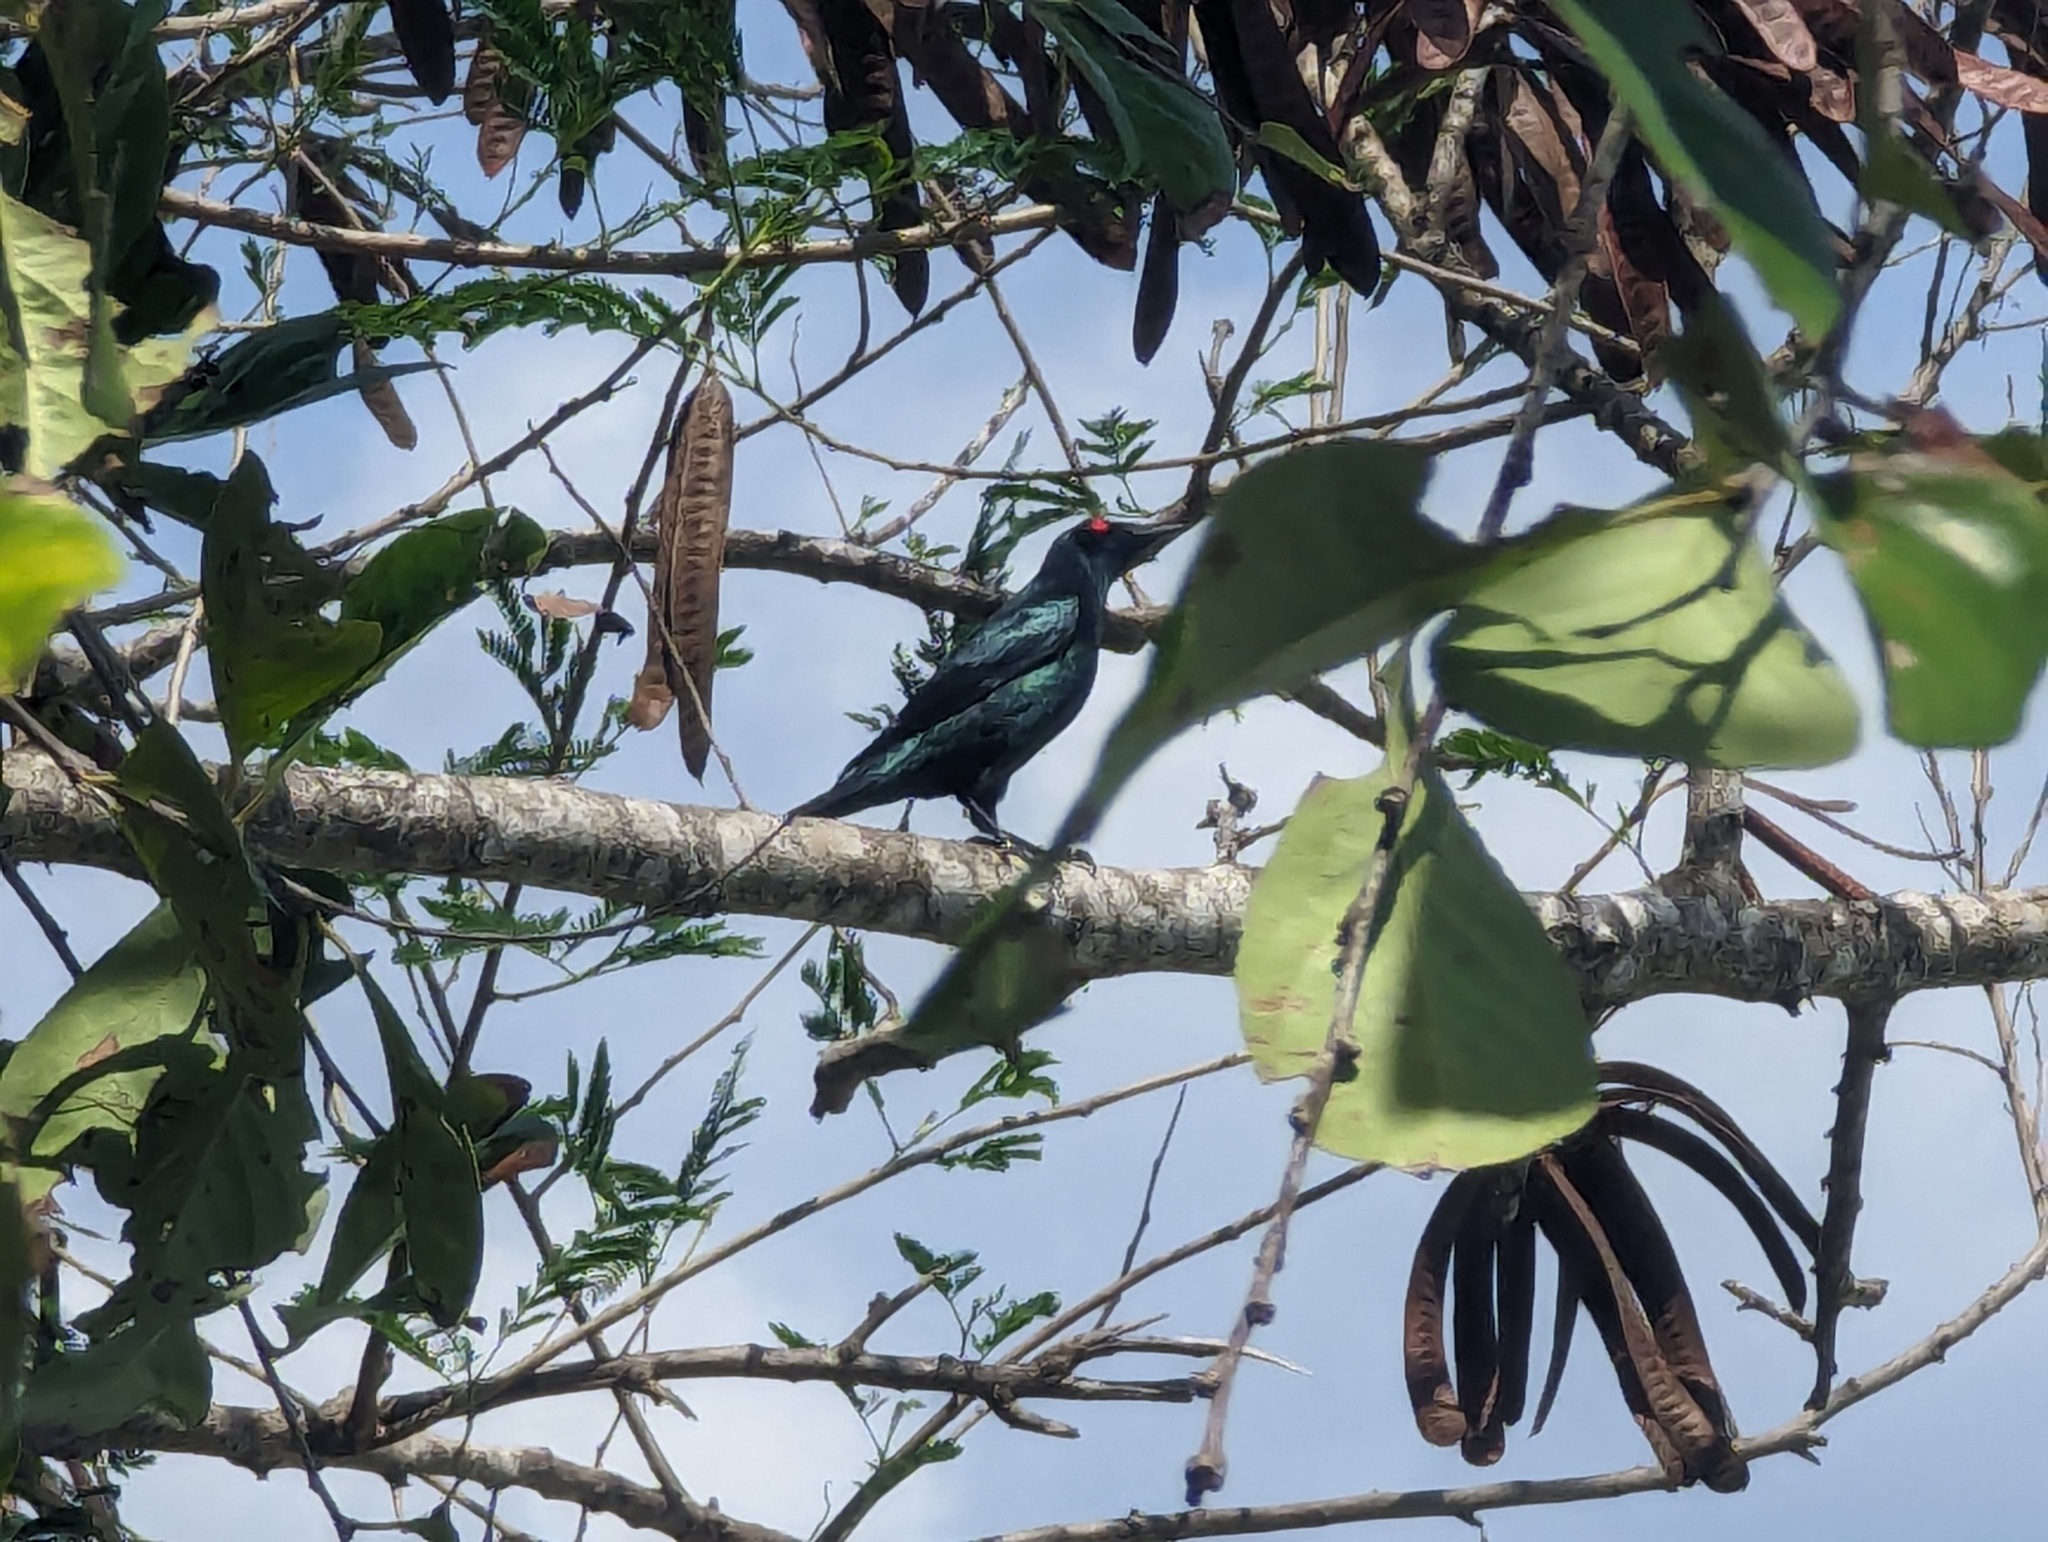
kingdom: Animalia
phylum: Chordata
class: Aves
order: Passeriformes
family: Sturnidae
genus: Aplonis
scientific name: Aplonis panayensis
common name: Asian glossy starling
